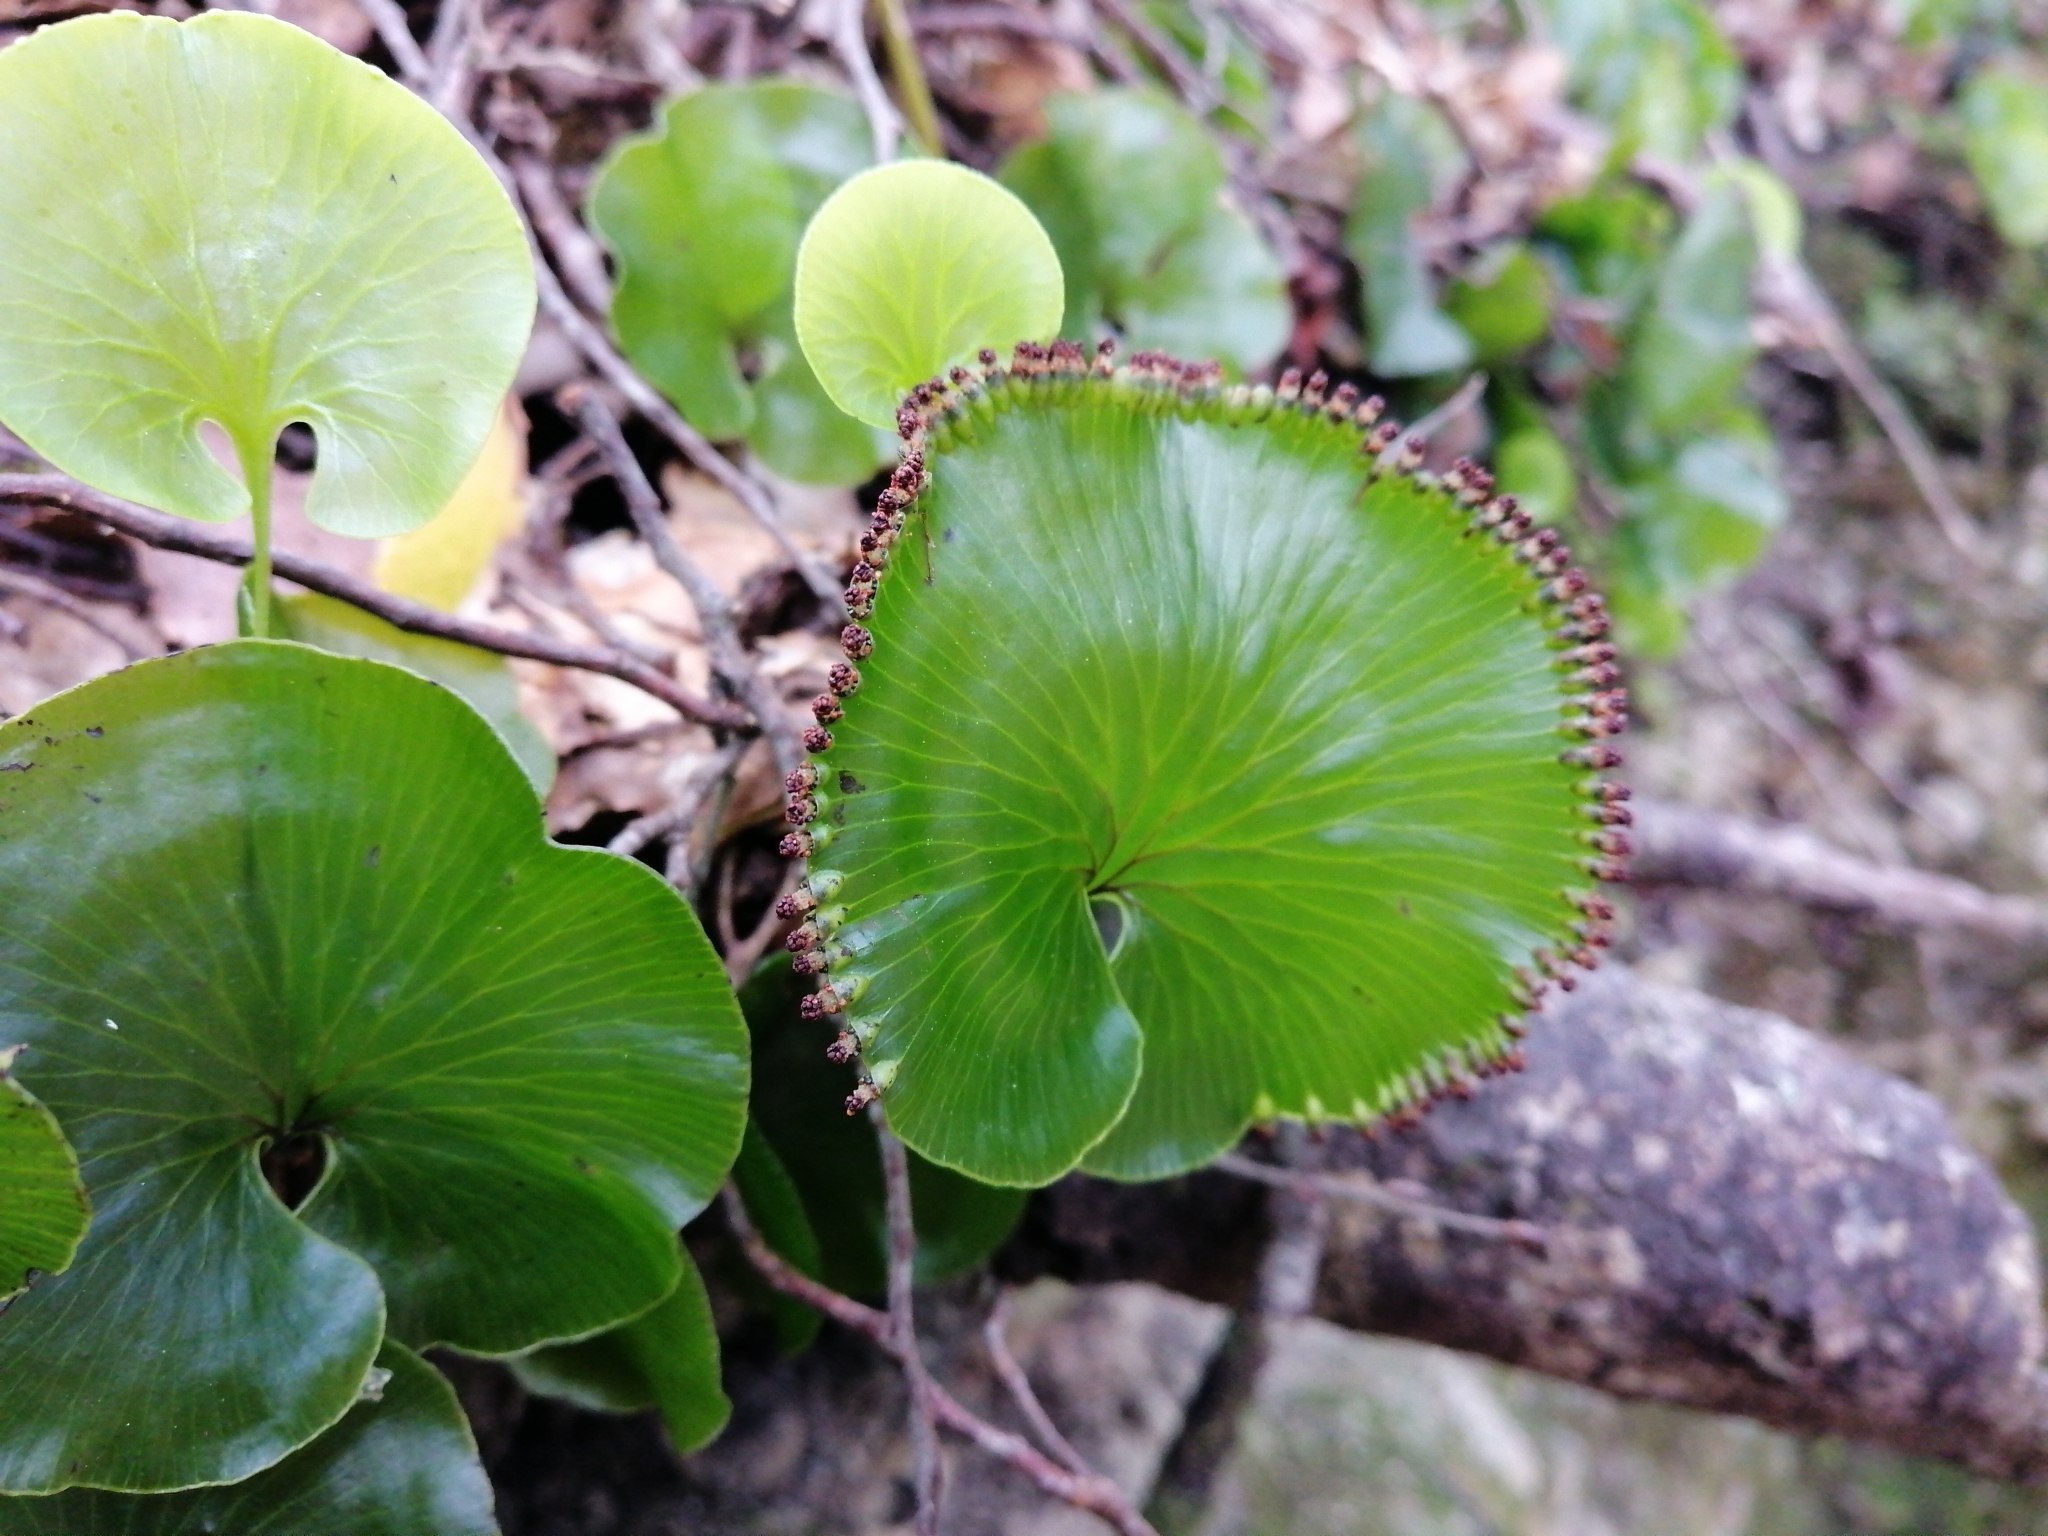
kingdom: Plantae
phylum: Tracheophyta
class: Polypodiopsida
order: Hymenophyllales
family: Hymenophyllaceae
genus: Hymenophyllum
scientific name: Hymenophyllum nephrophyllum
